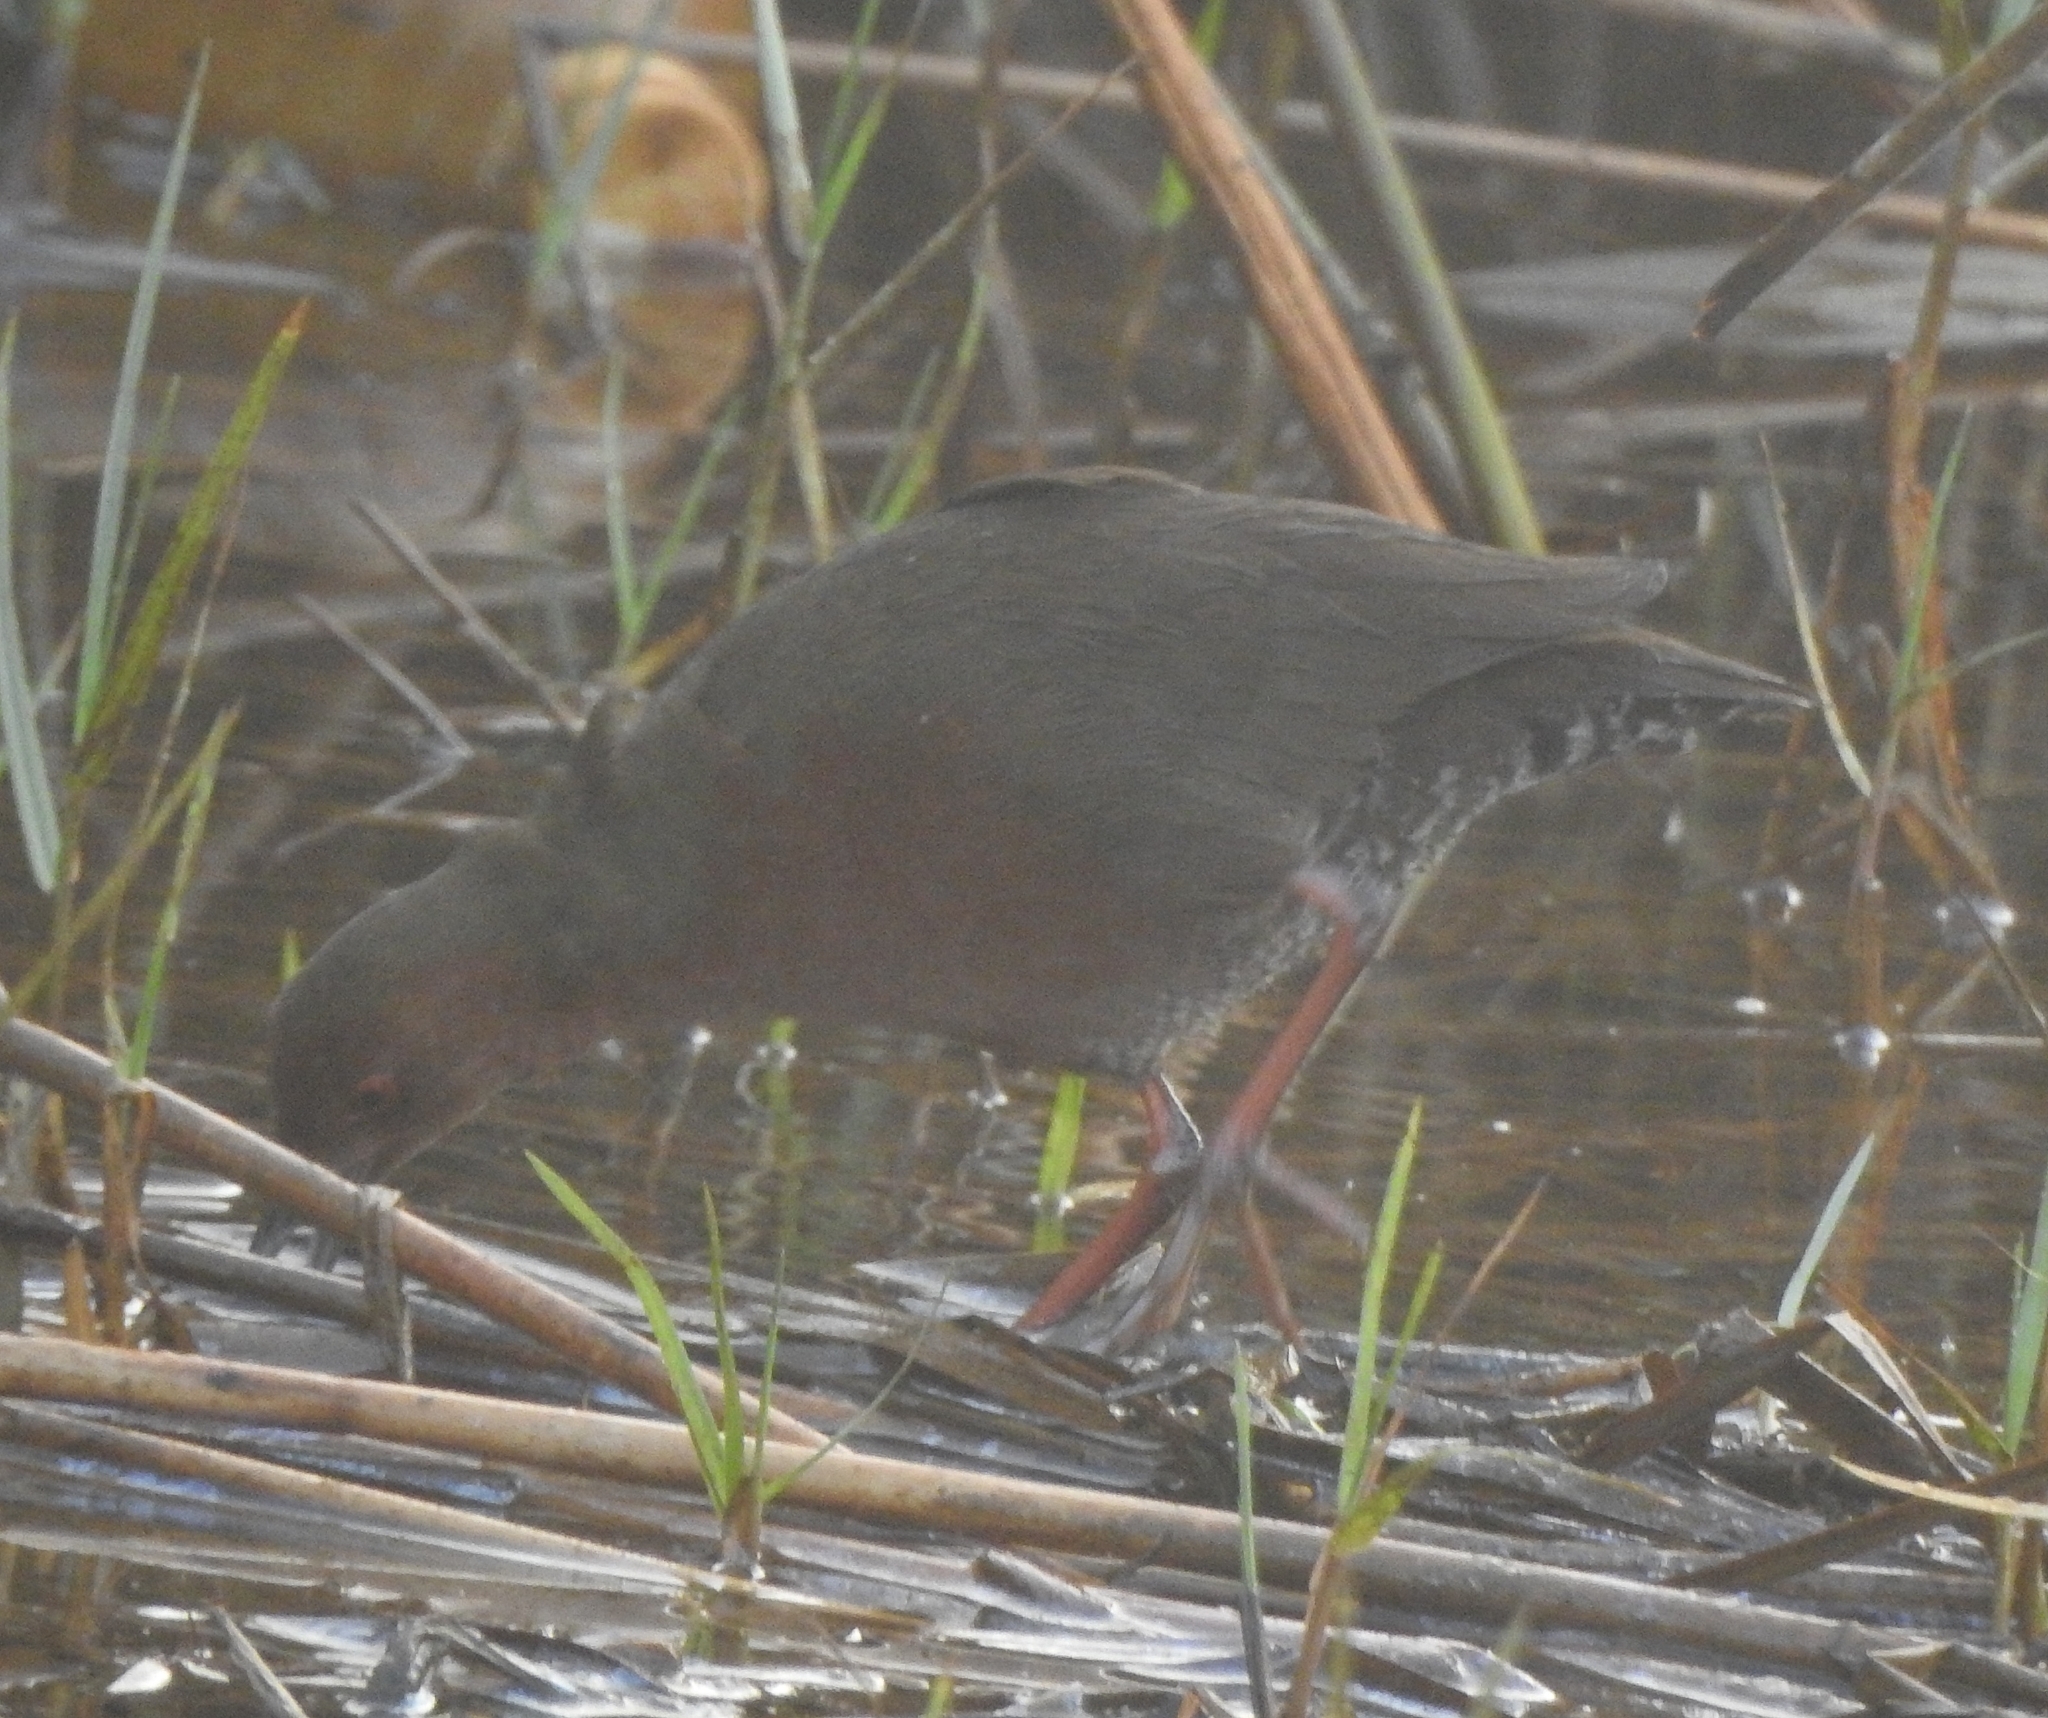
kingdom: Animalia
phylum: Chordata
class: Aves
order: Gruiformes
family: Rallidae
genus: Porzana
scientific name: Porzana fusca
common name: Ruddy-breasted crake
